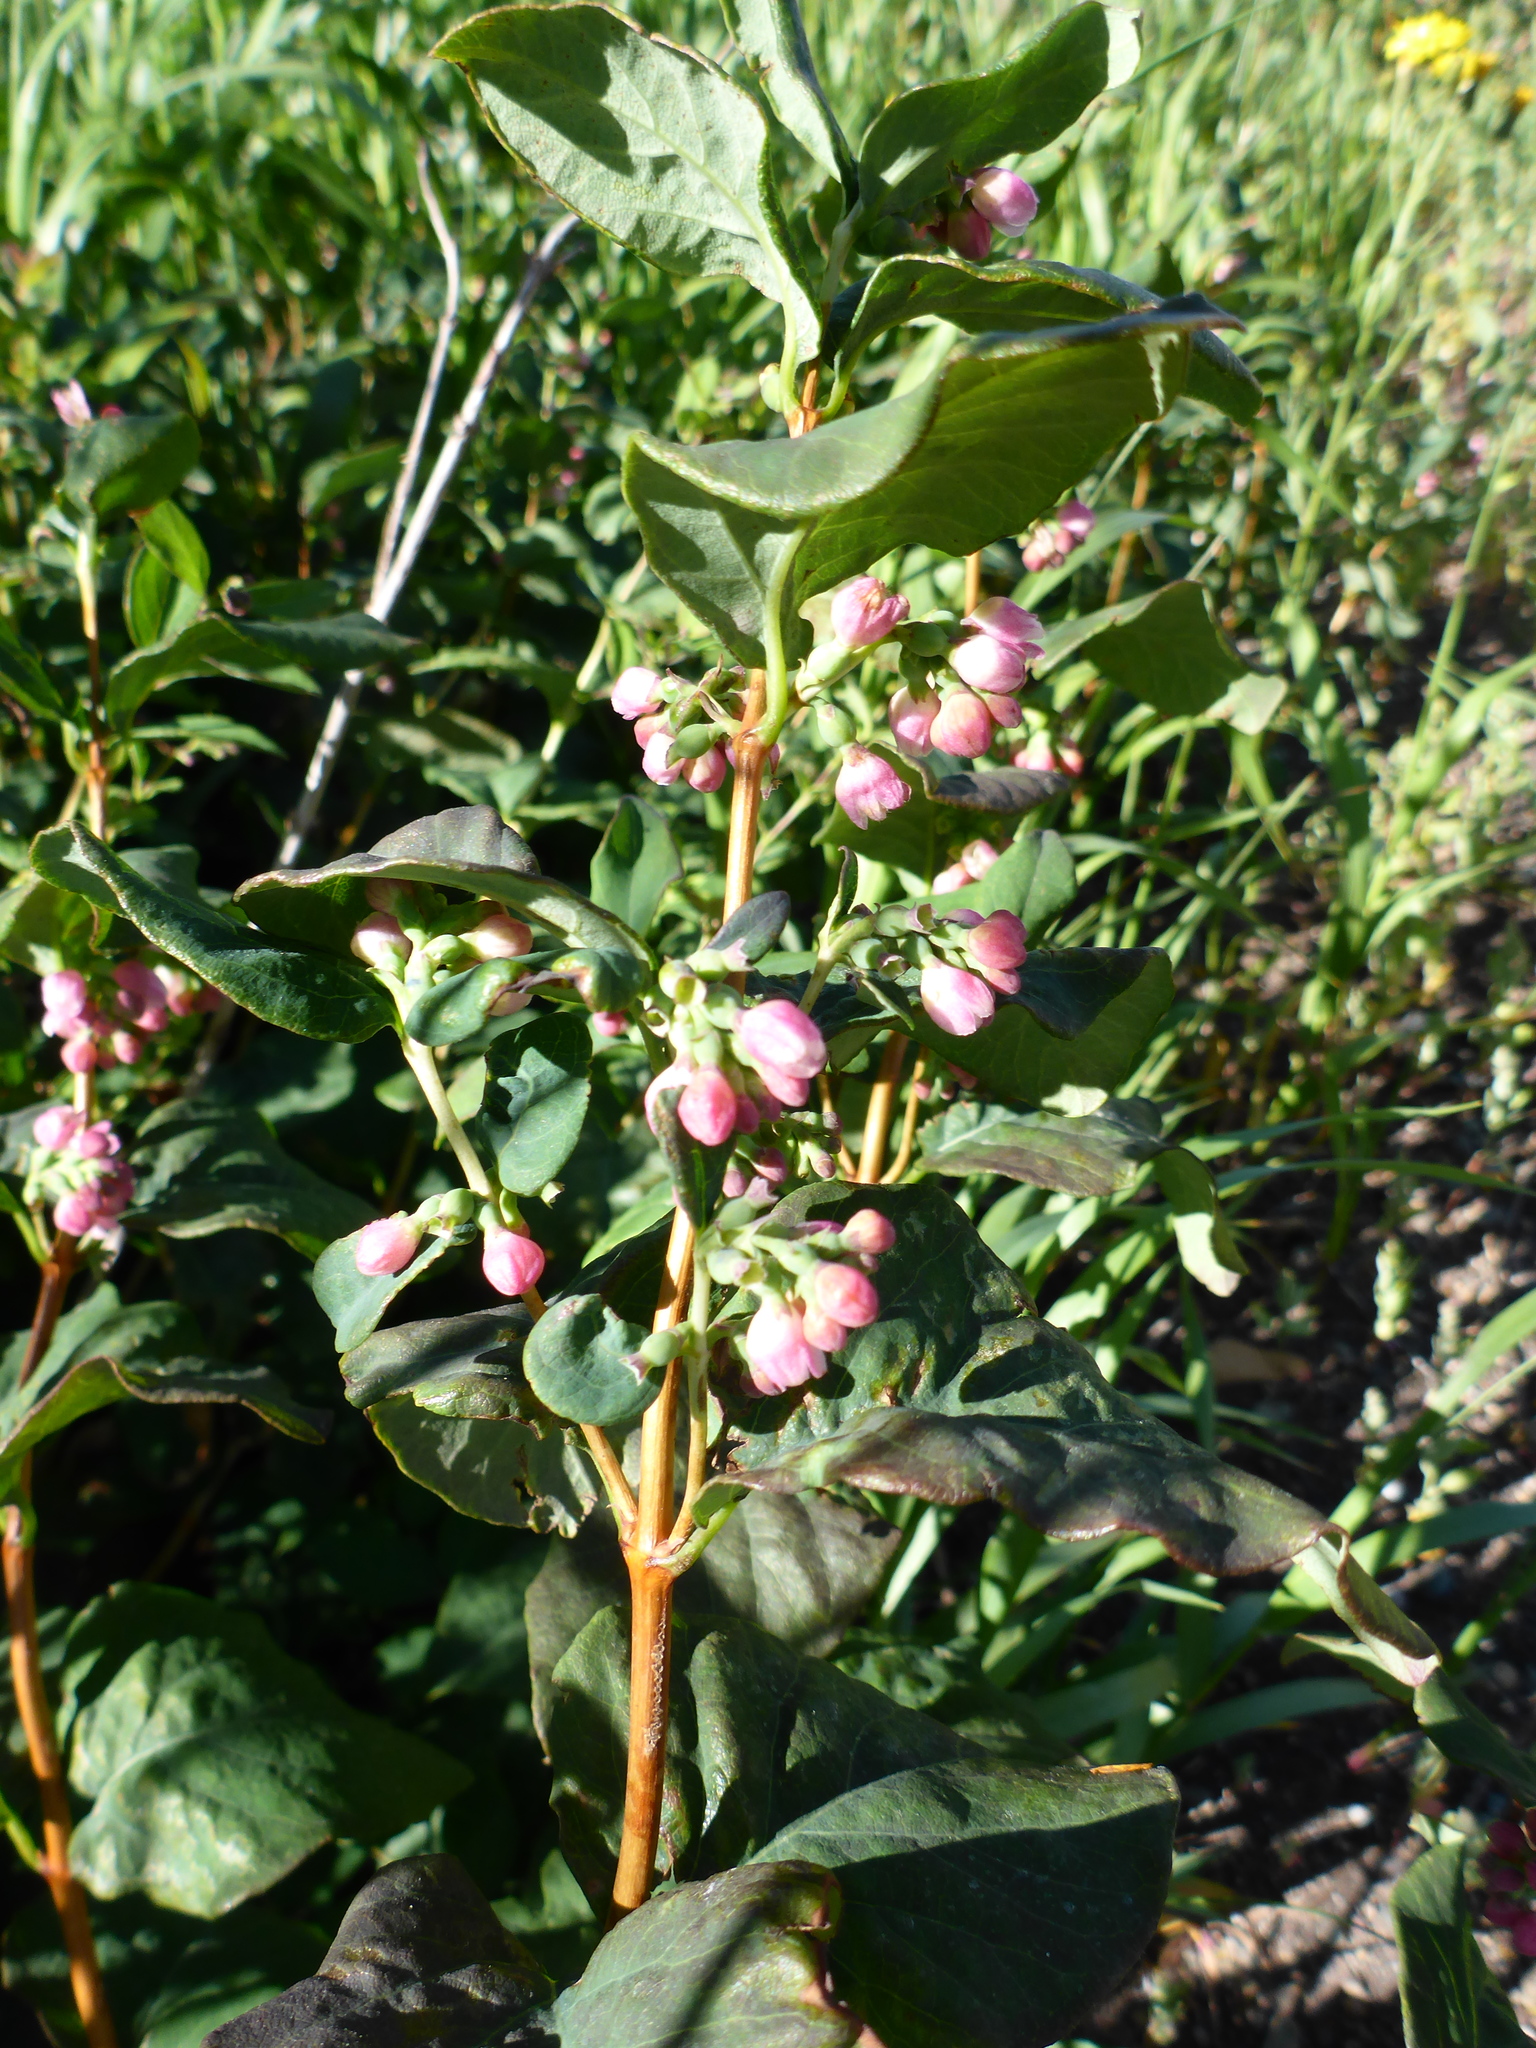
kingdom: Plantae
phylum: Tracheophyta
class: Magnoliopsida
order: Dipsacales
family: Caprifoliaceae
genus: Symphoricarpos
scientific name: Symphoricarpos occidentalis
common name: Wolfberry
